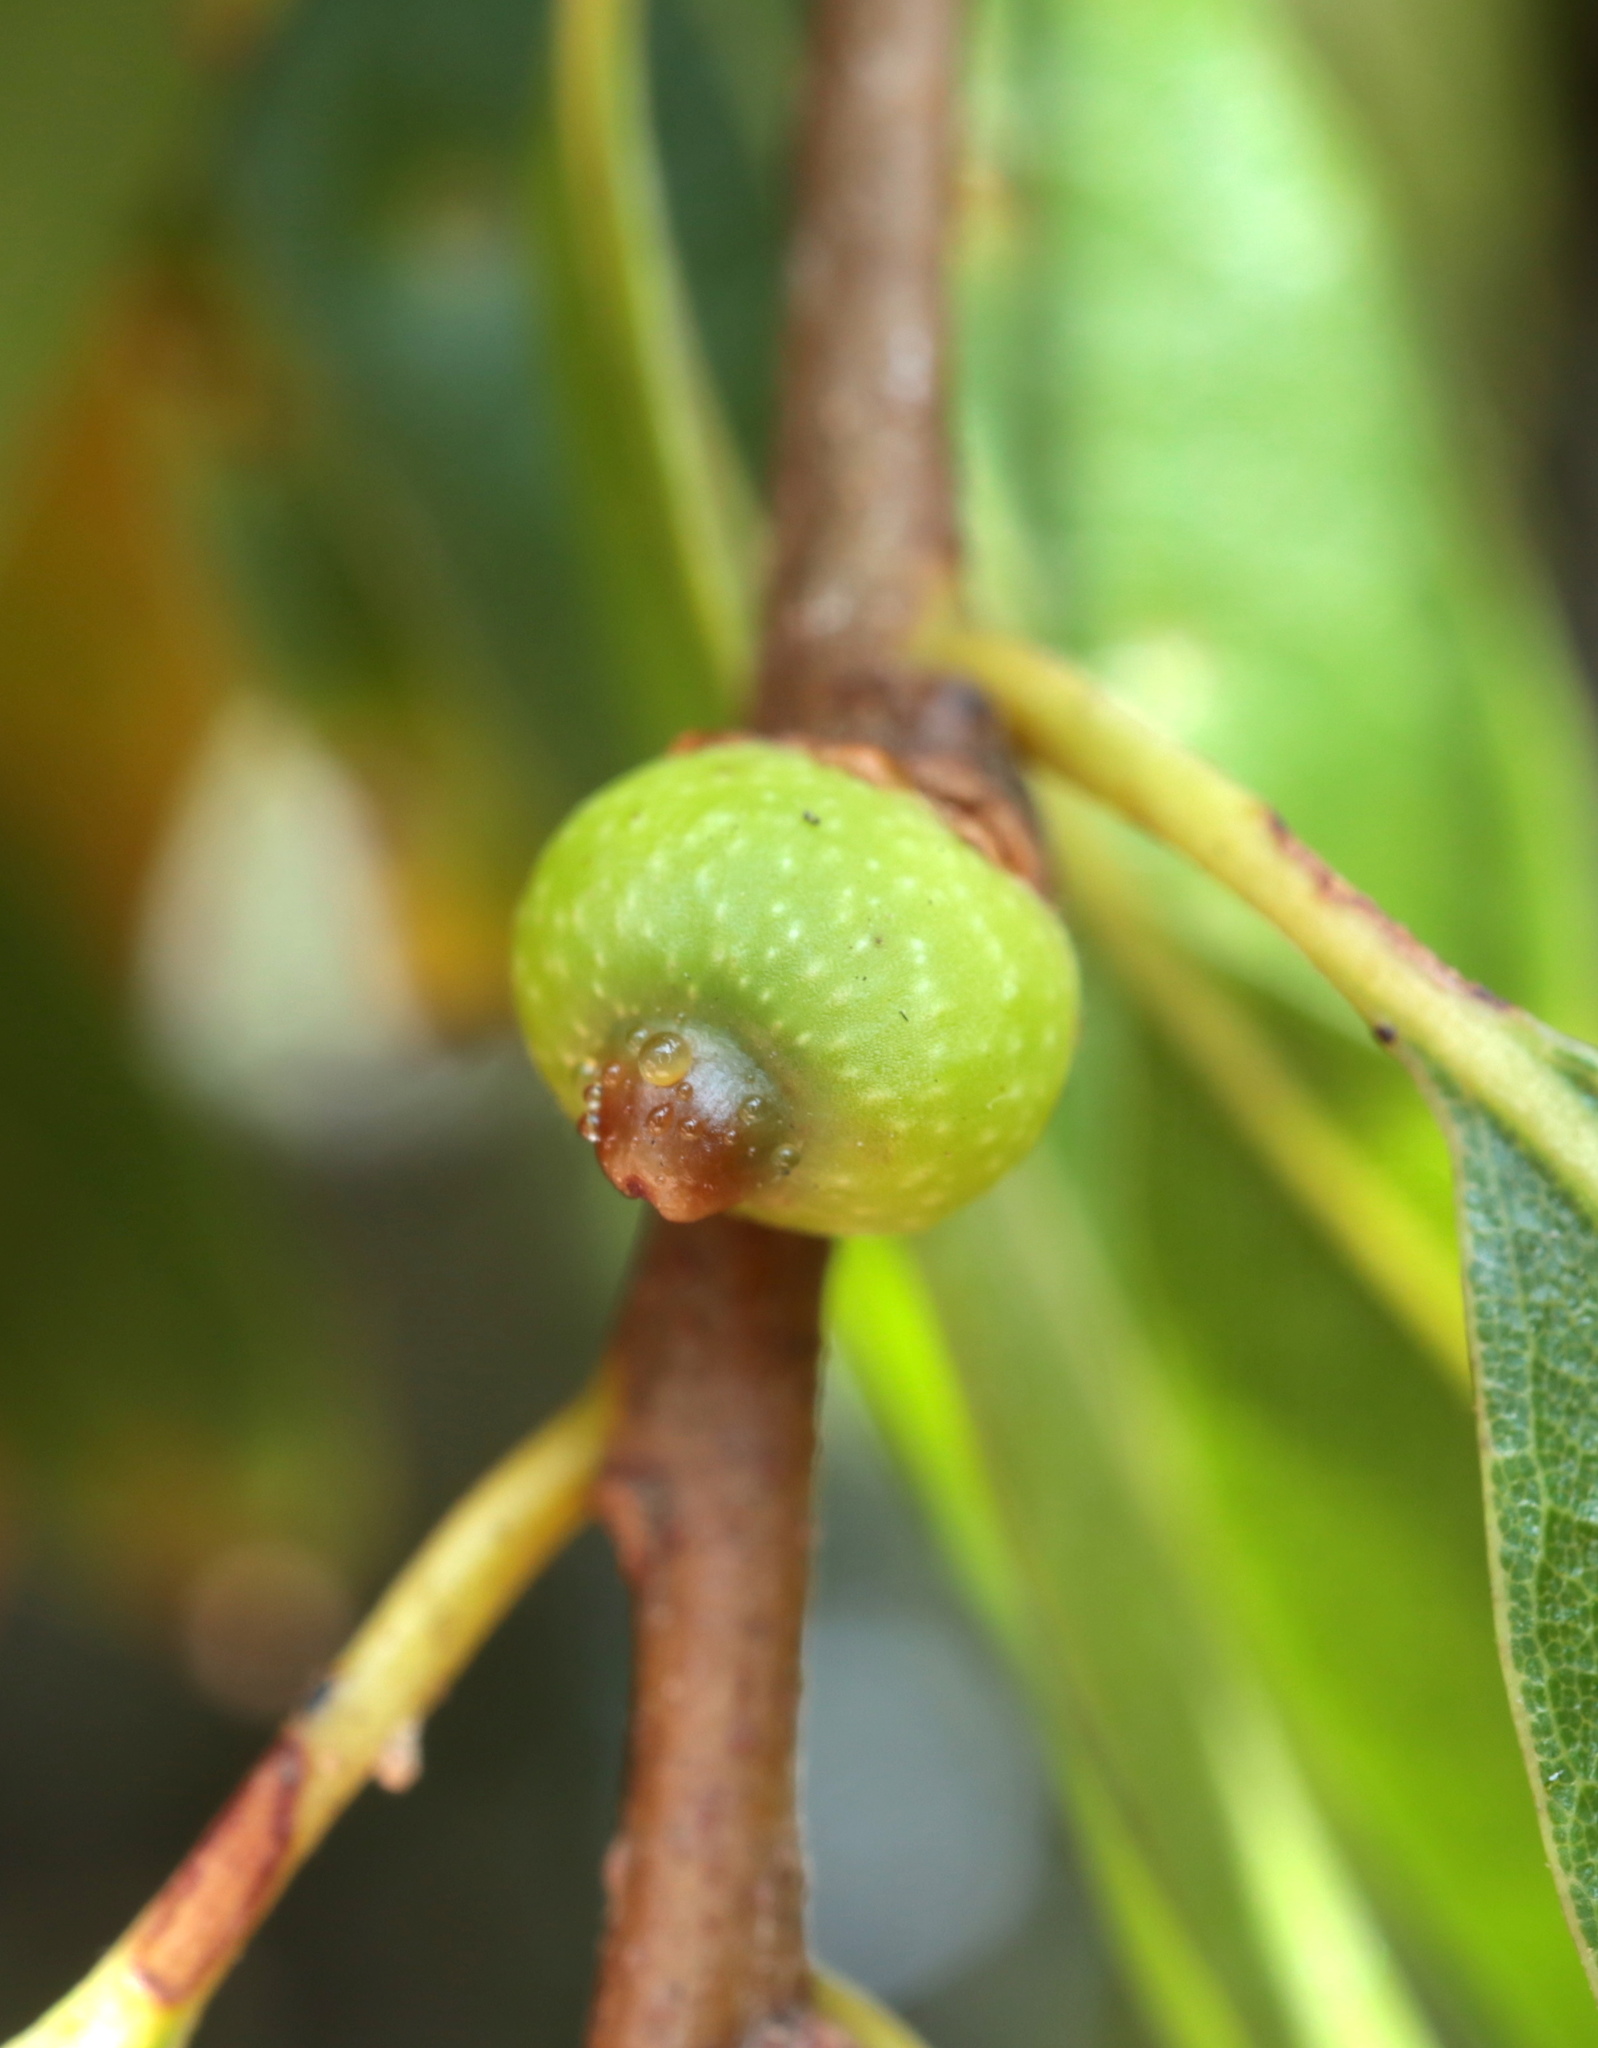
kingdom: Animalia
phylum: Arthropoda
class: Insecta
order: Hymenoptera
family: Cynipidae
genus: Callirhytis
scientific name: Callirhytis
